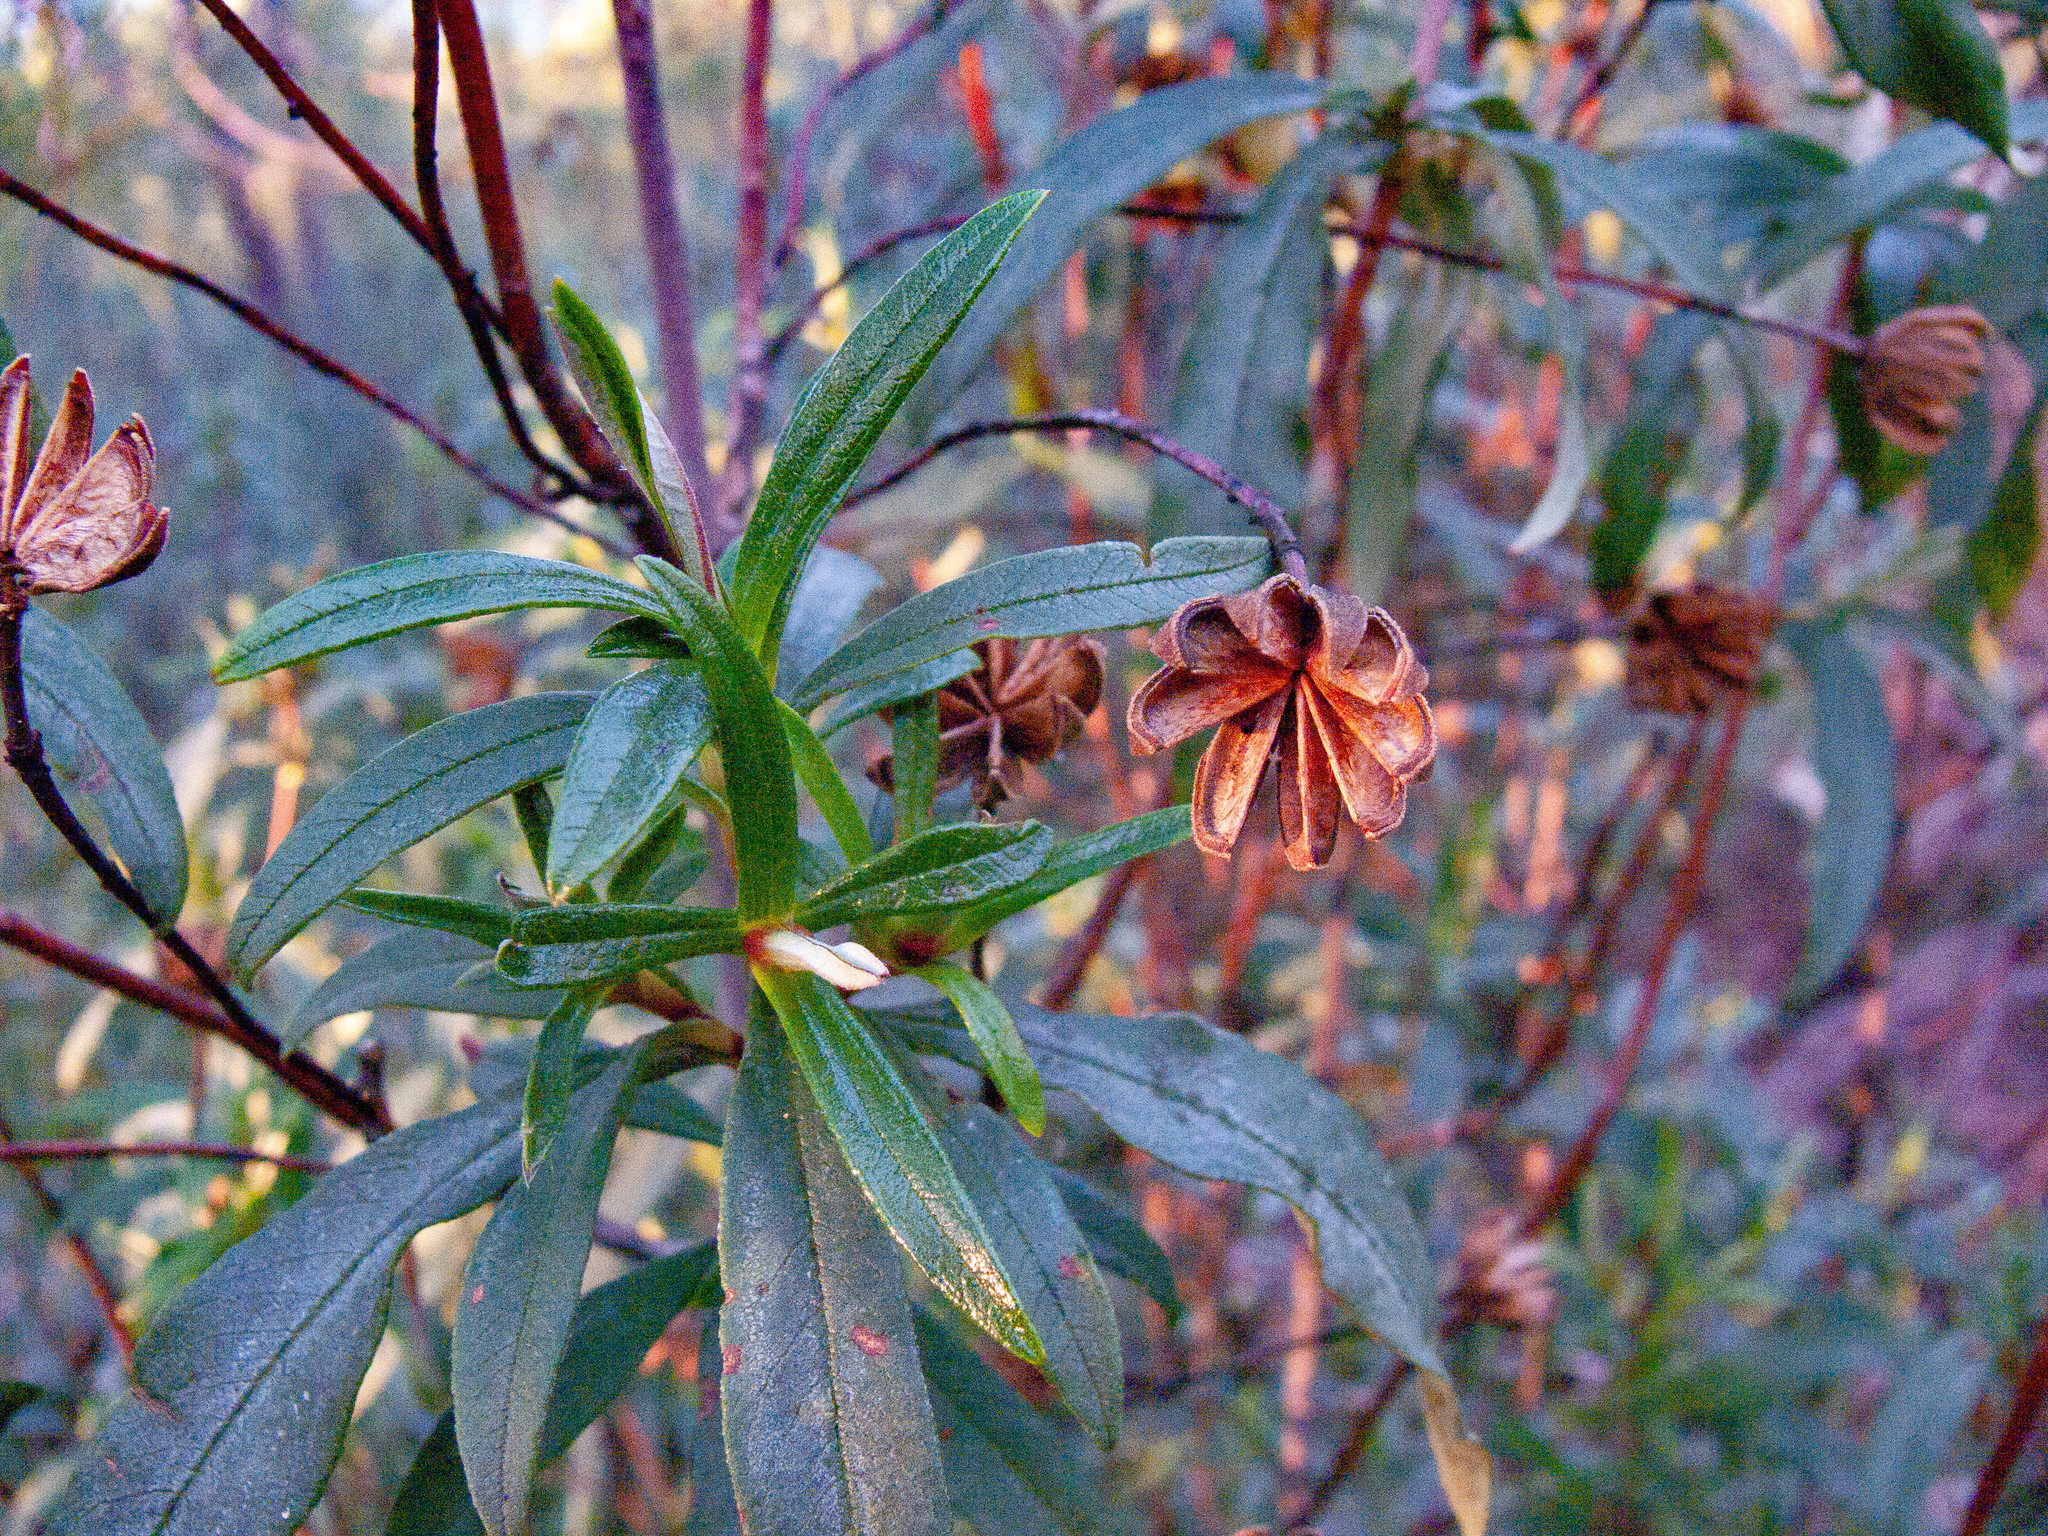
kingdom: Plantae
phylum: Tracheophyta
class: Magnoliopsida
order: Malvales
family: Cistaceae
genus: Cistus
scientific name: Cistus ladanifer
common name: Common gum cistus
